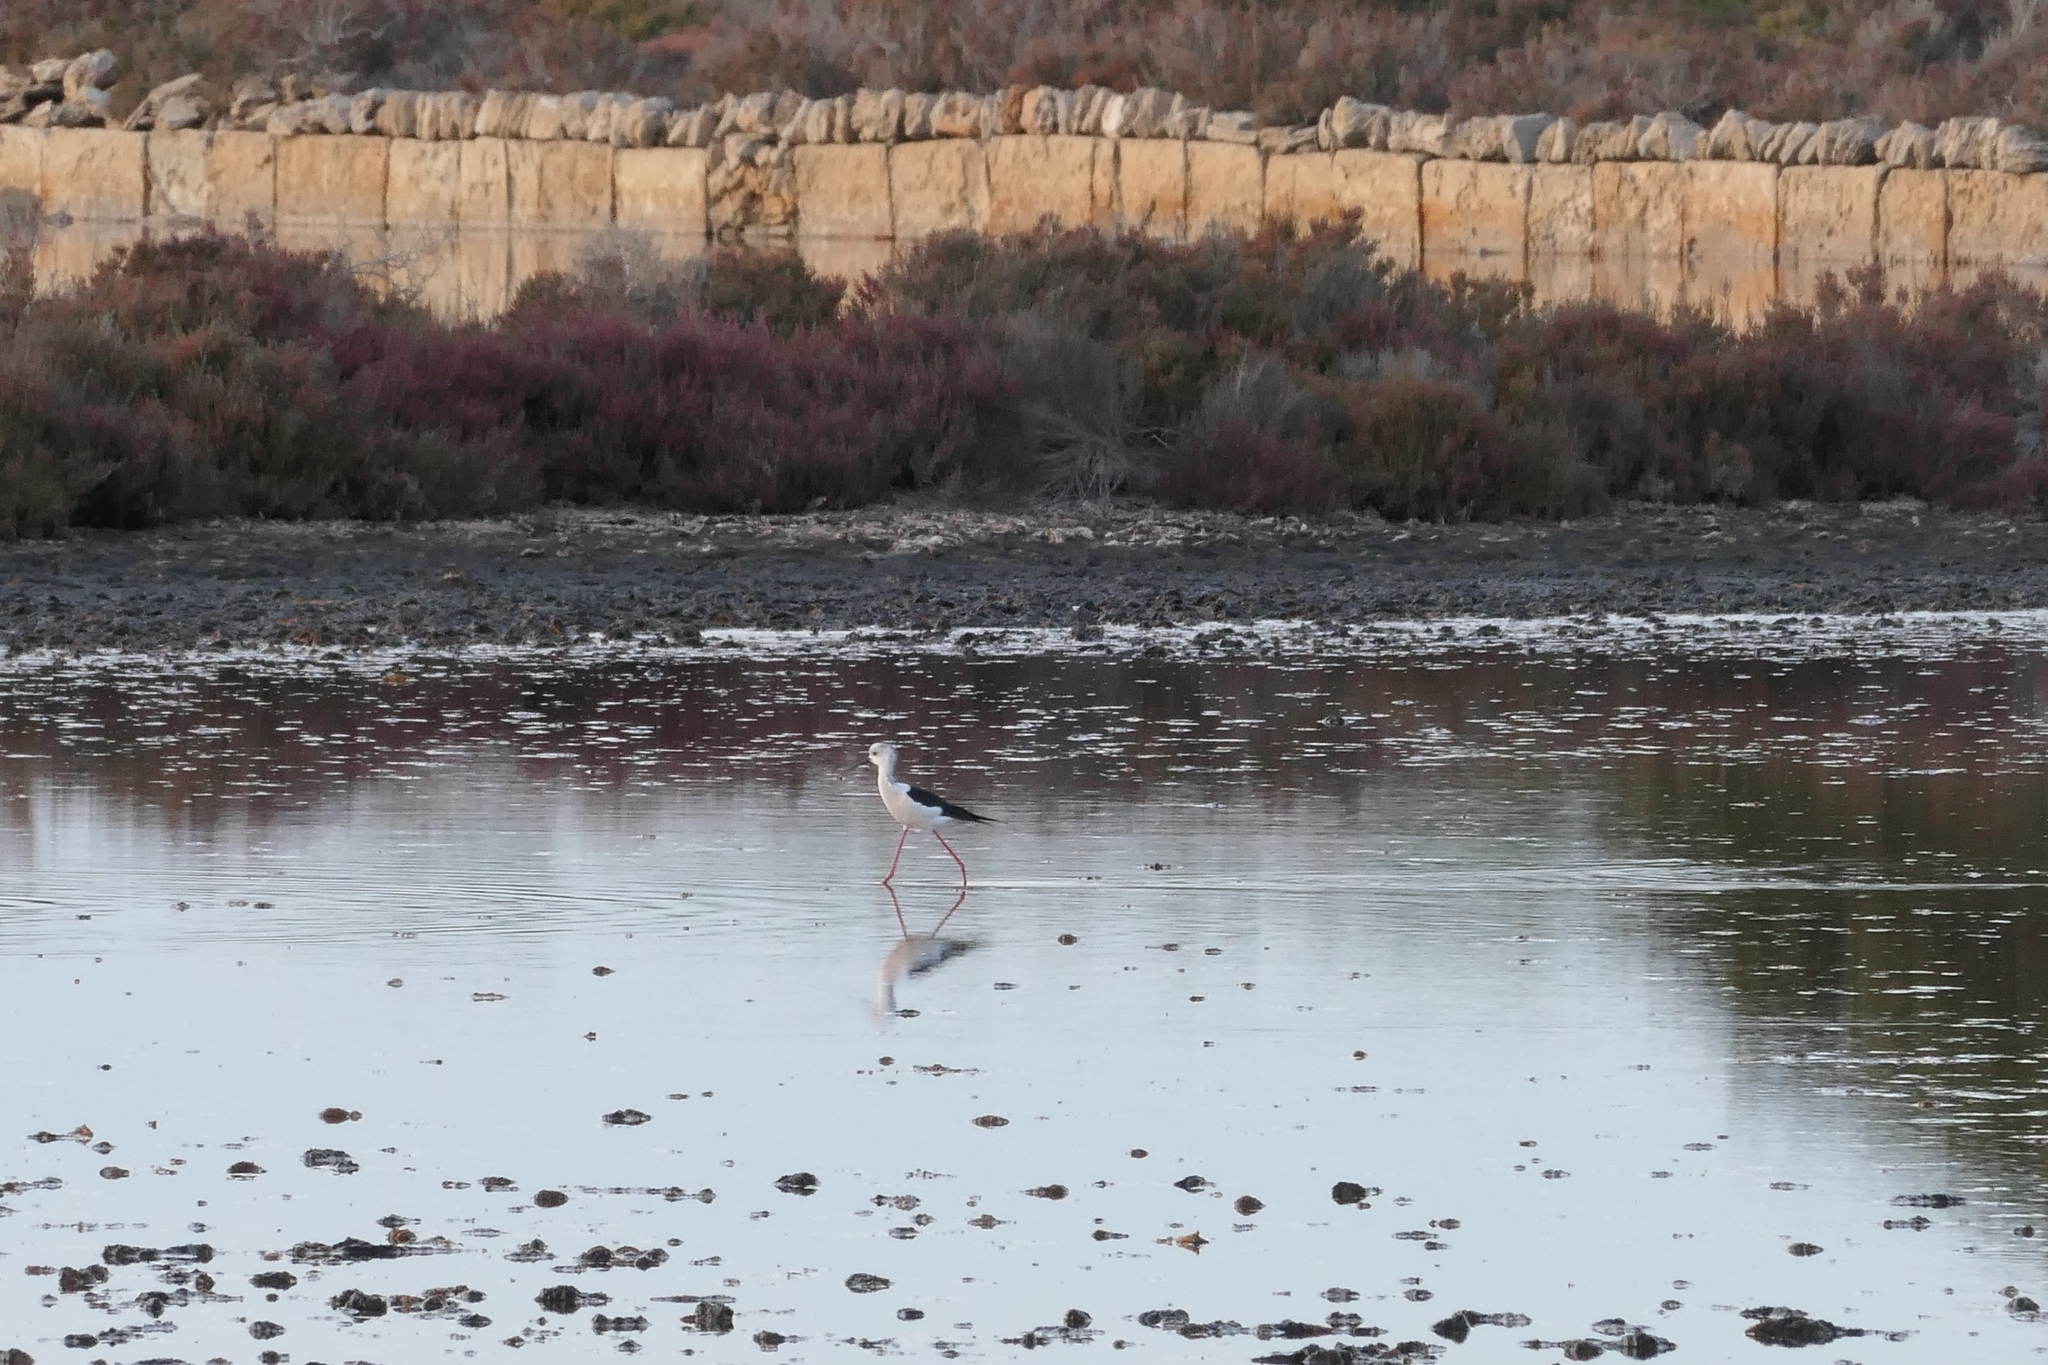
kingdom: Animalia
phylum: Chordata
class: Aves
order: Charadriiformes
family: Recurvirostridae
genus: Himantopus
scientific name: Himantopus himantopus
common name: Black-winged stilt
